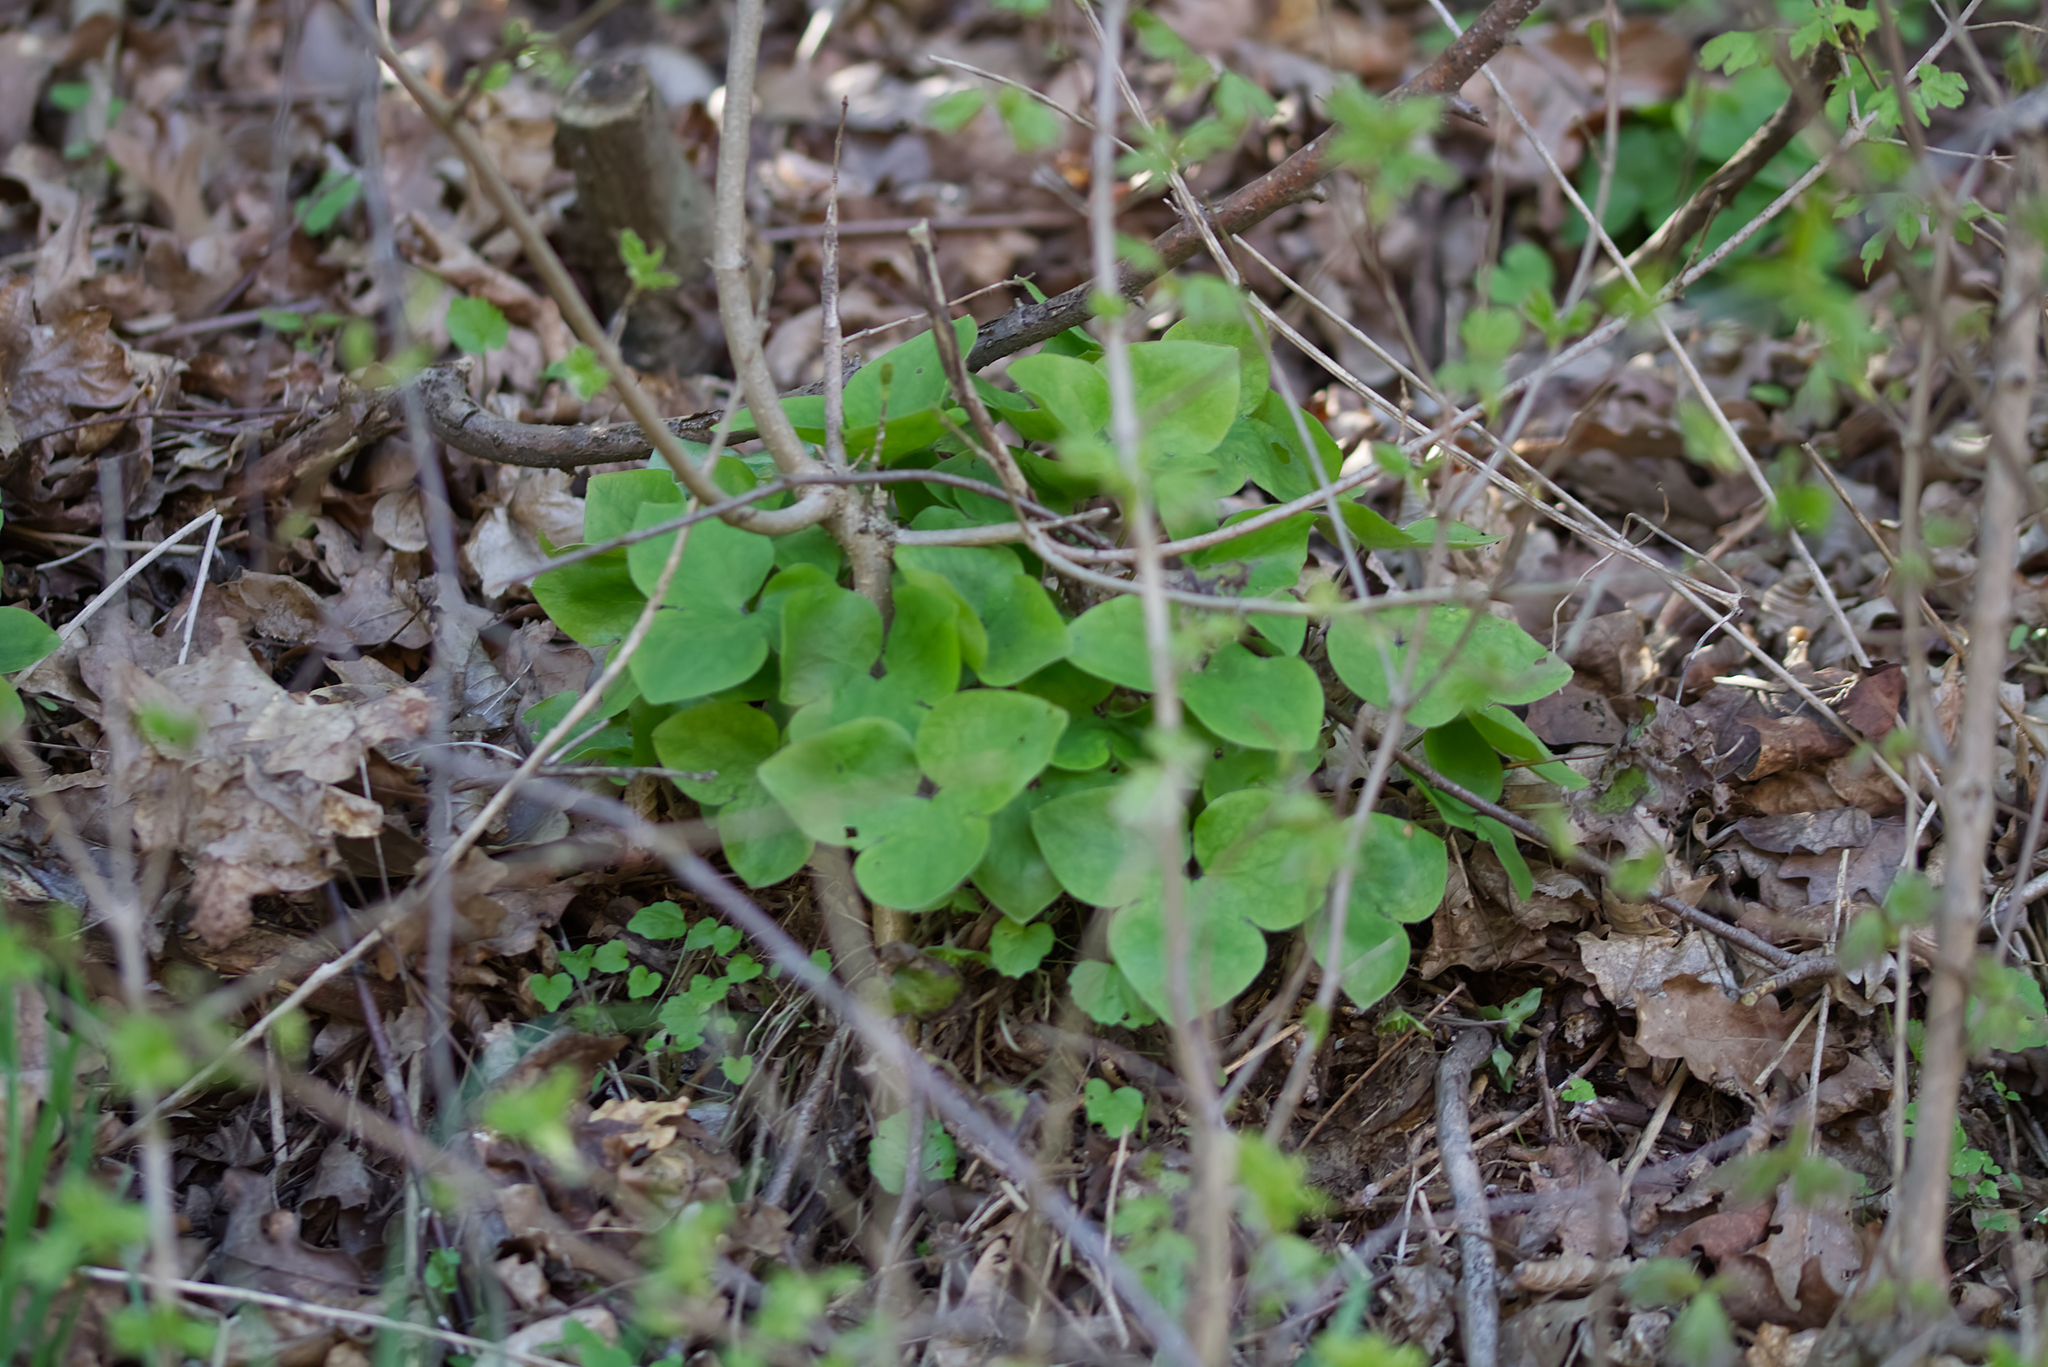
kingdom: Plantae
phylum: Tracheophyta
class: Magnoliopsida
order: Ranunculales
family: Ranunculaceae
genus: Hepatica
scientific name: Hepatica nobilis
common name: Liverleaf
